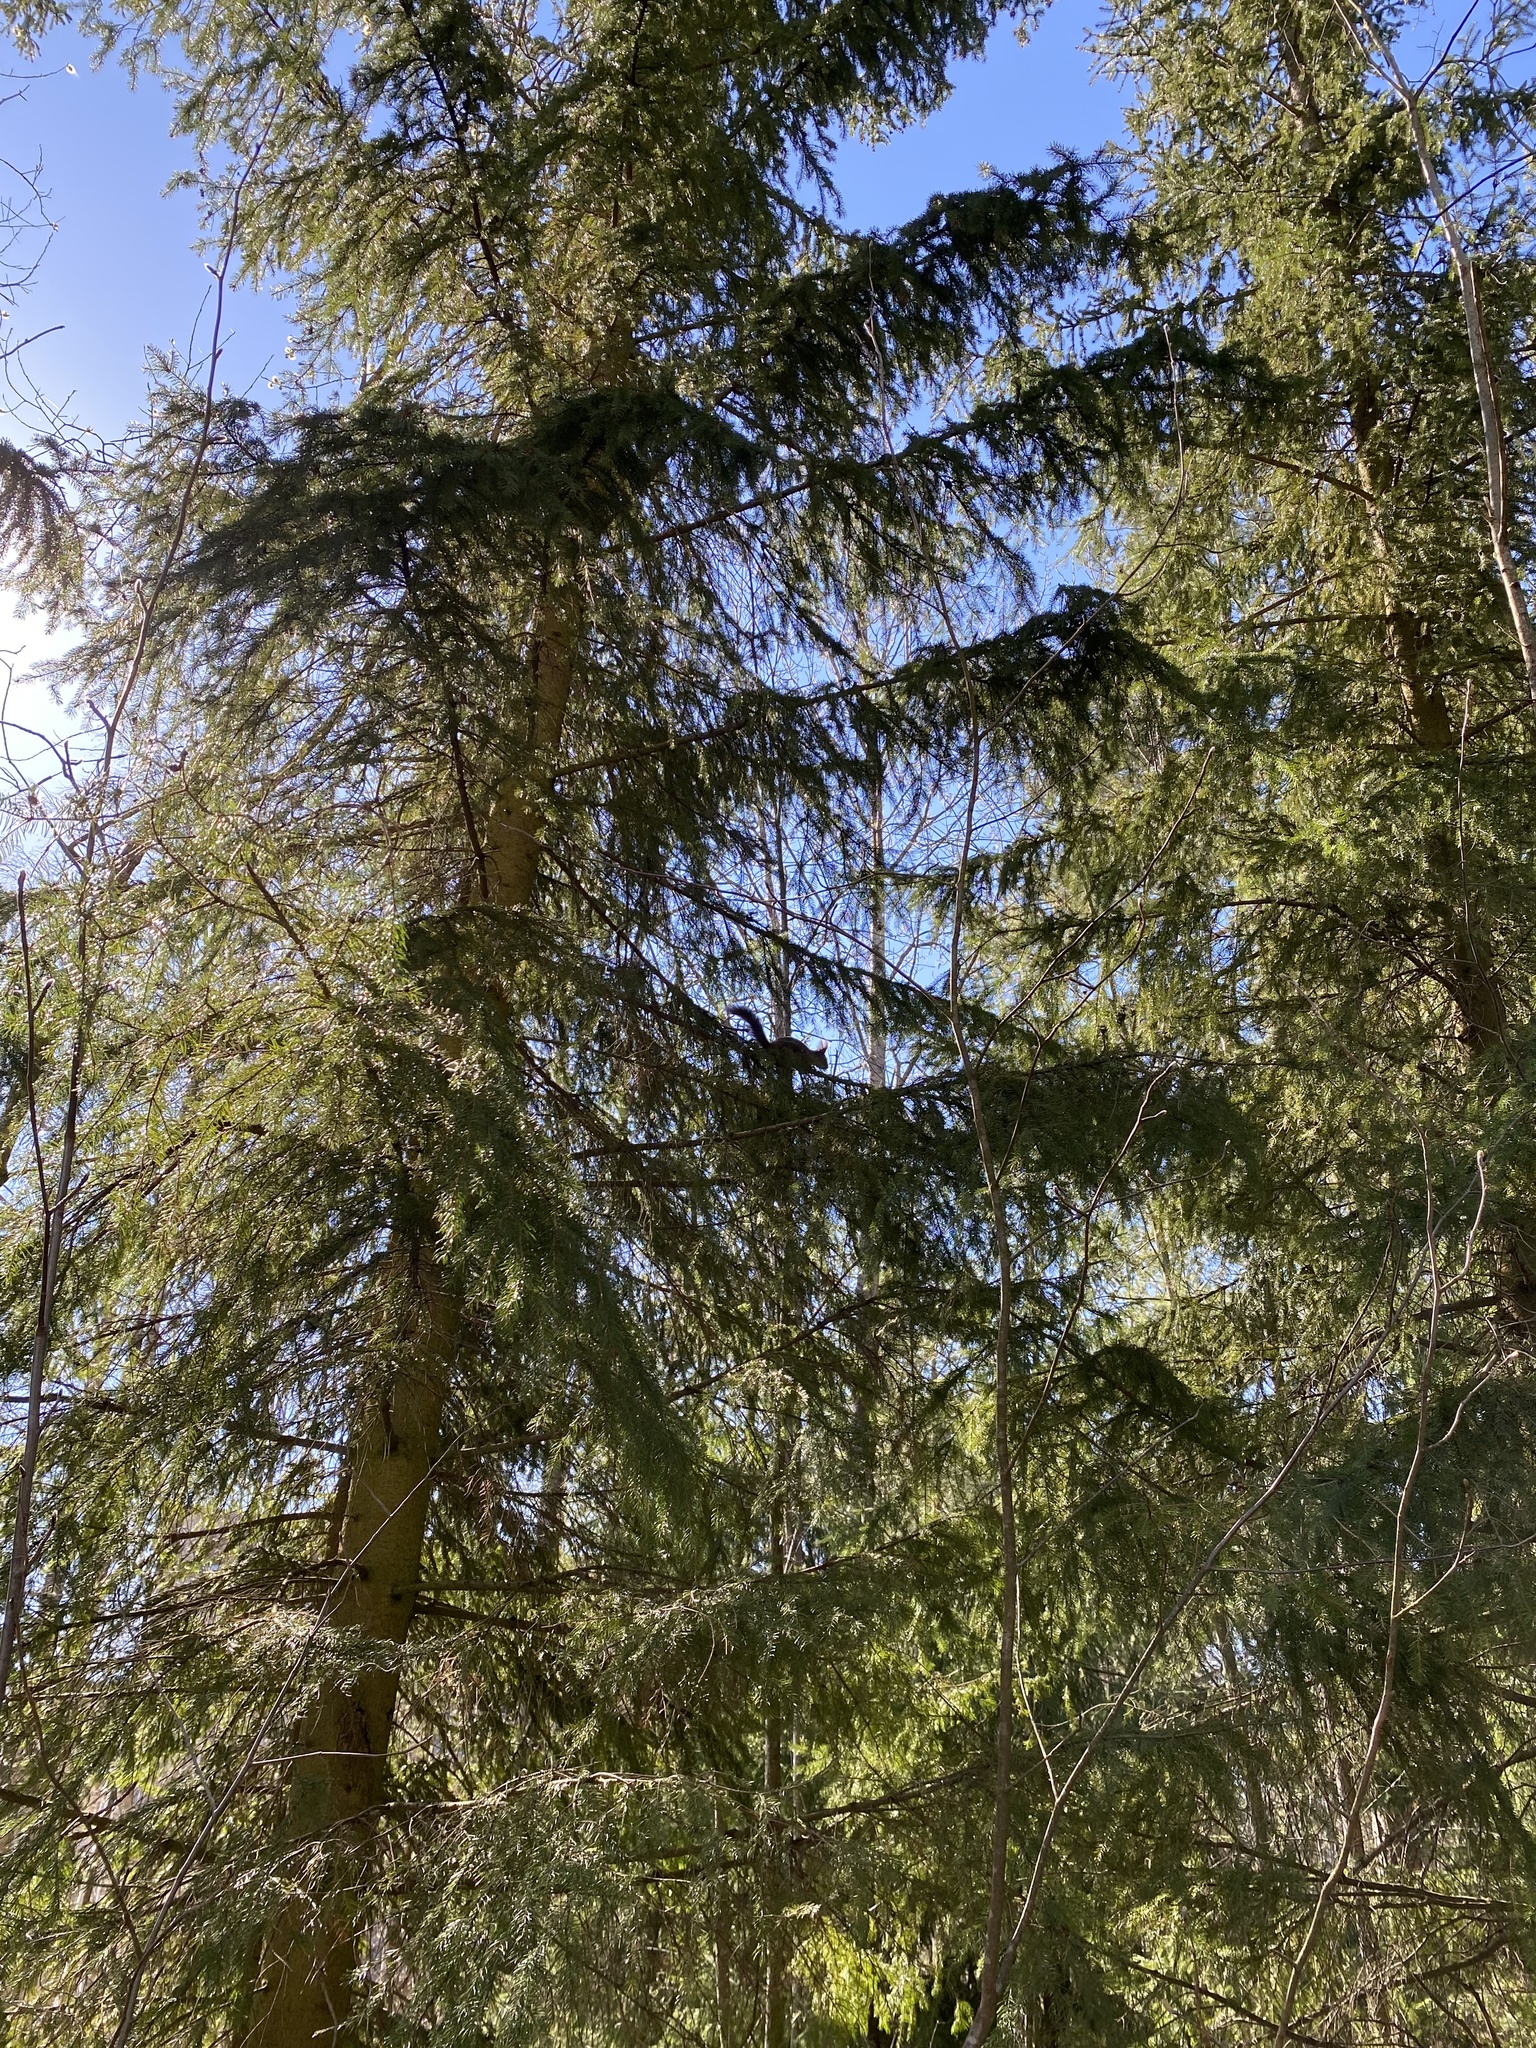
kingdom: Animalia
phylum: Chordata
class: Mammalia
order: Rodentia
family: Sciuridae
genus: Sciurus
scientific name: Sciurus vulgaris
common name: Eurasian red squirrel
